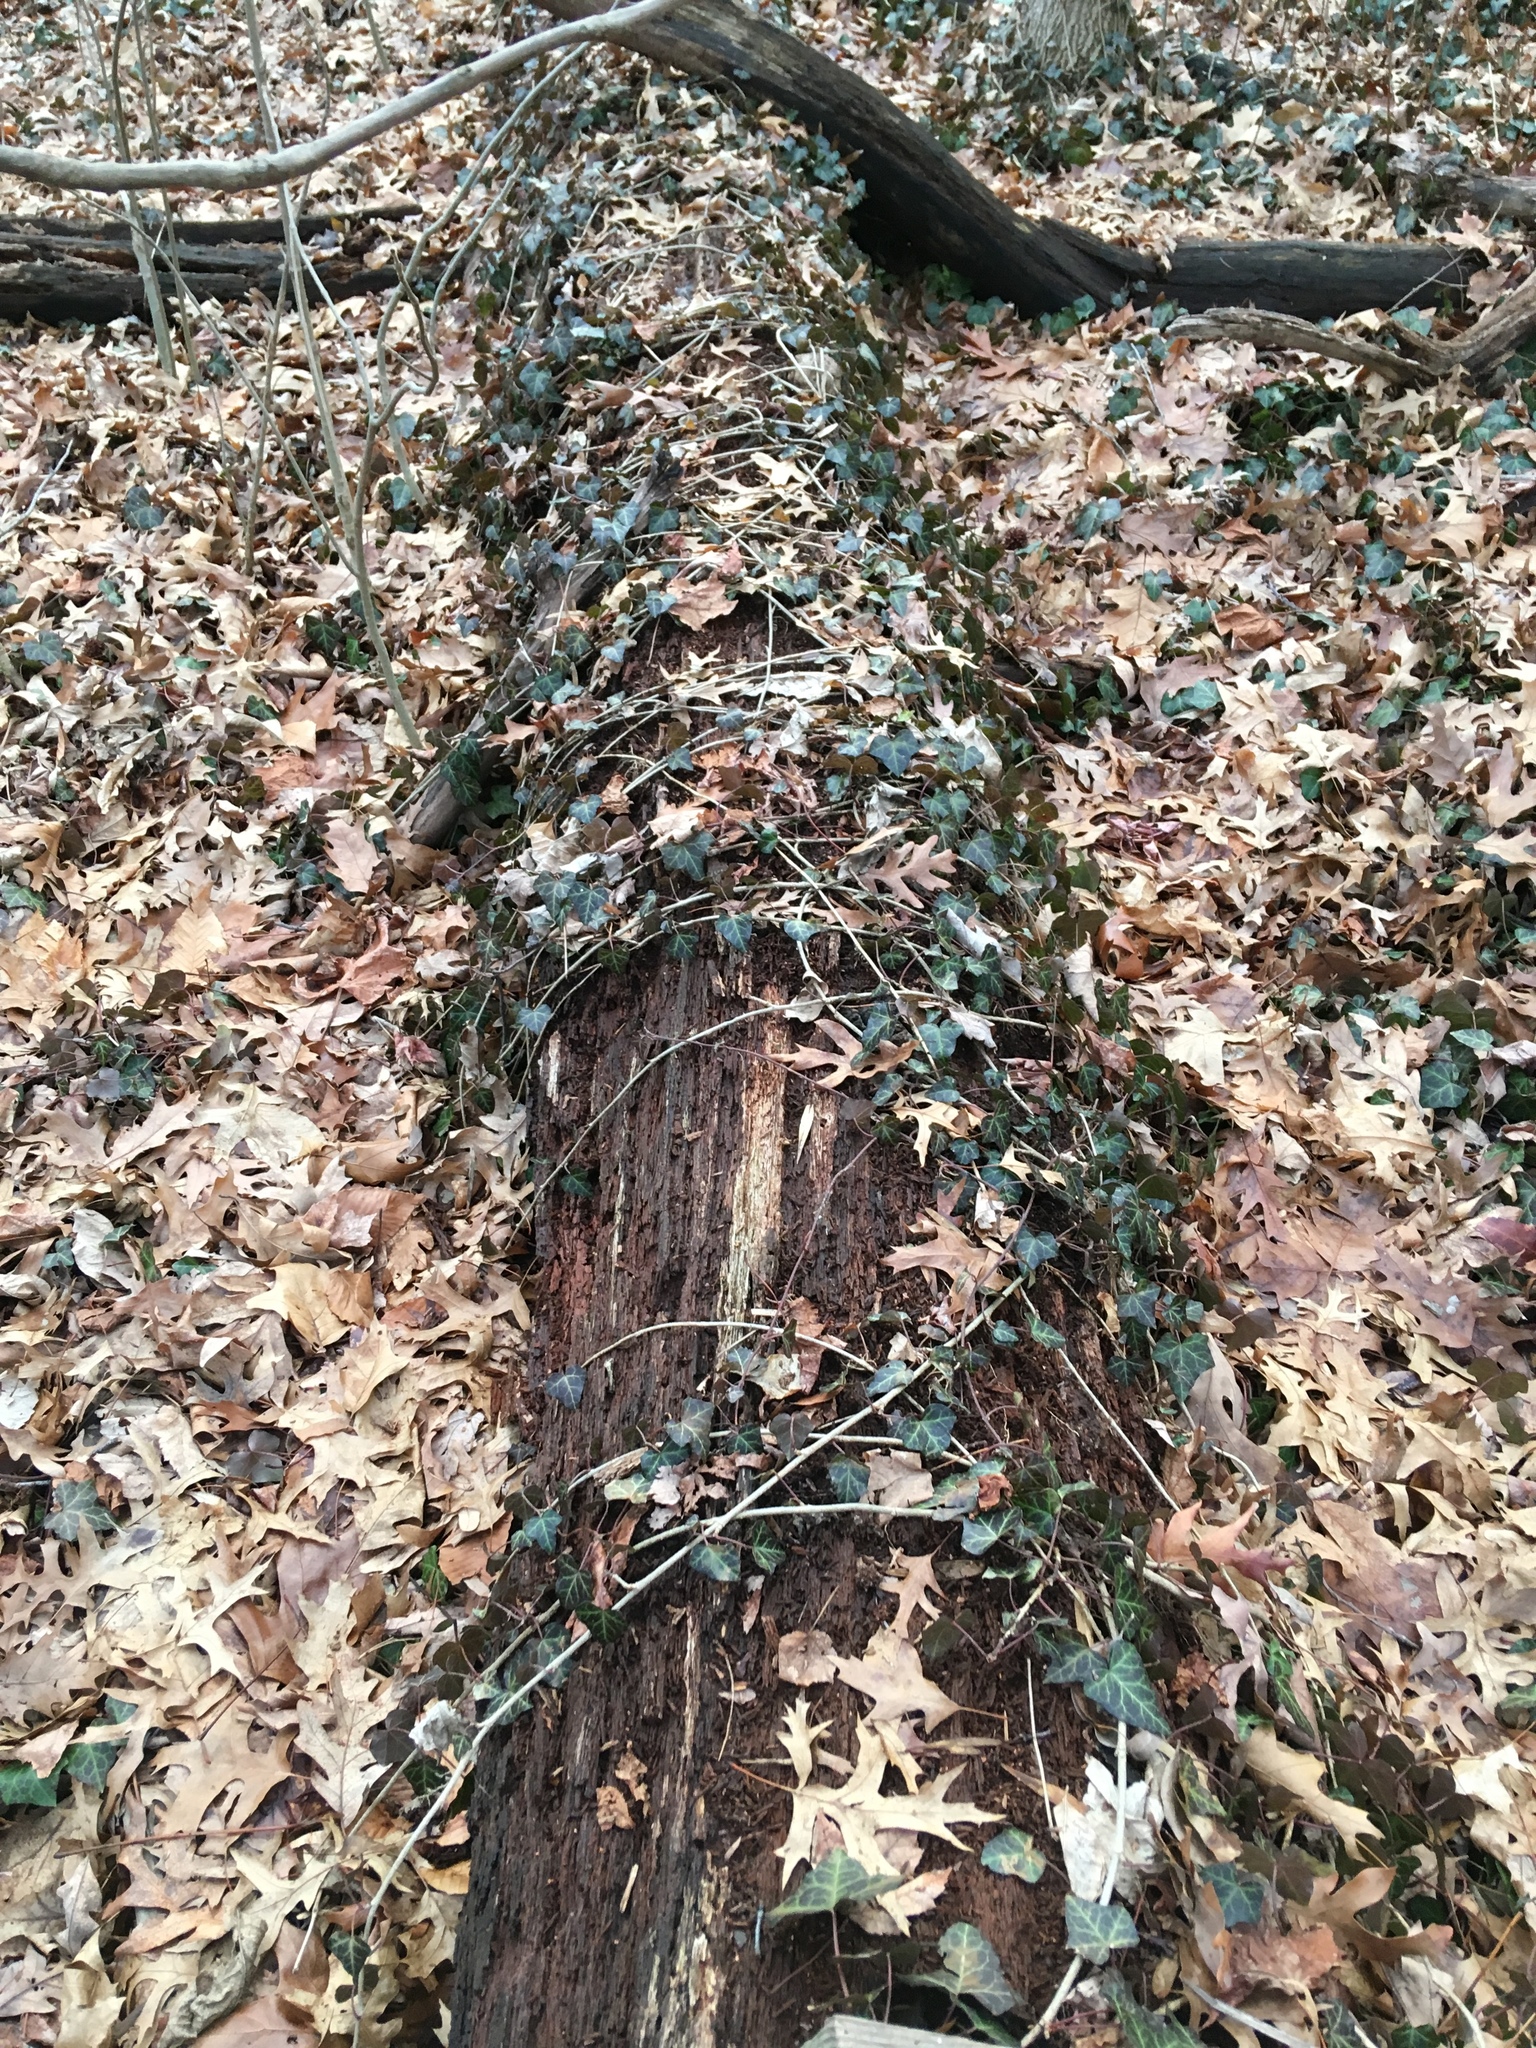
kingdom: Plantae
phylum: Tracheophyta
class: Magnoliopsida
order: Apiales
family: Araliaceae
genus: Hedera
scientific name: Hedera helix
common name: Ivy
